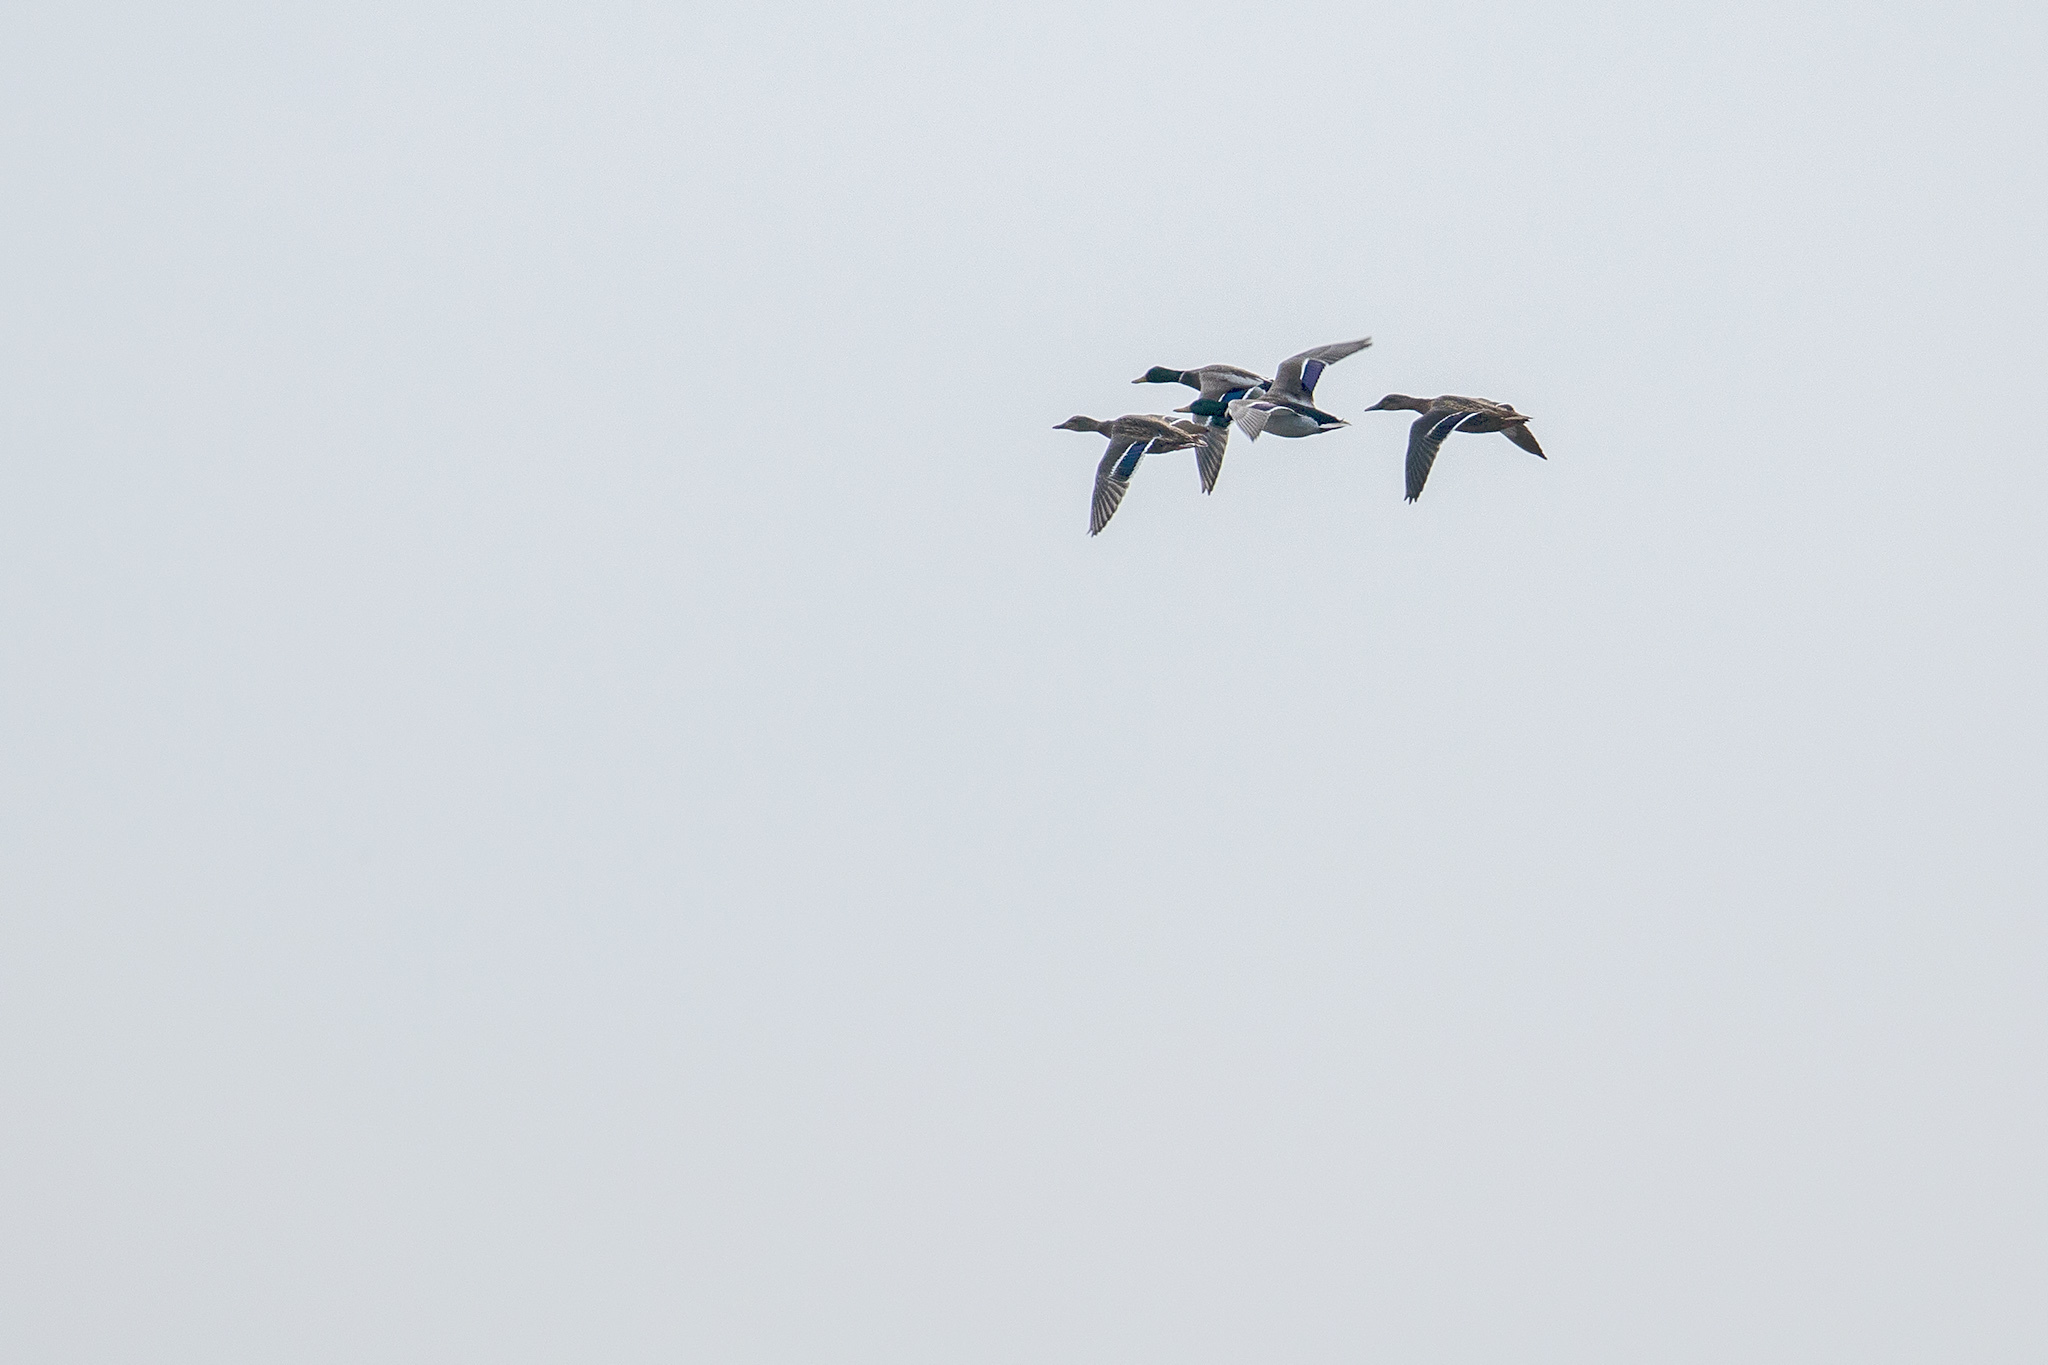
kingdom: Animalia
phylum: Chordata
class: Aves
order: Anseriformes
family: Anatidae
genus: Anas
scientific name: Anas platyrhynchos
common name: Mallard
